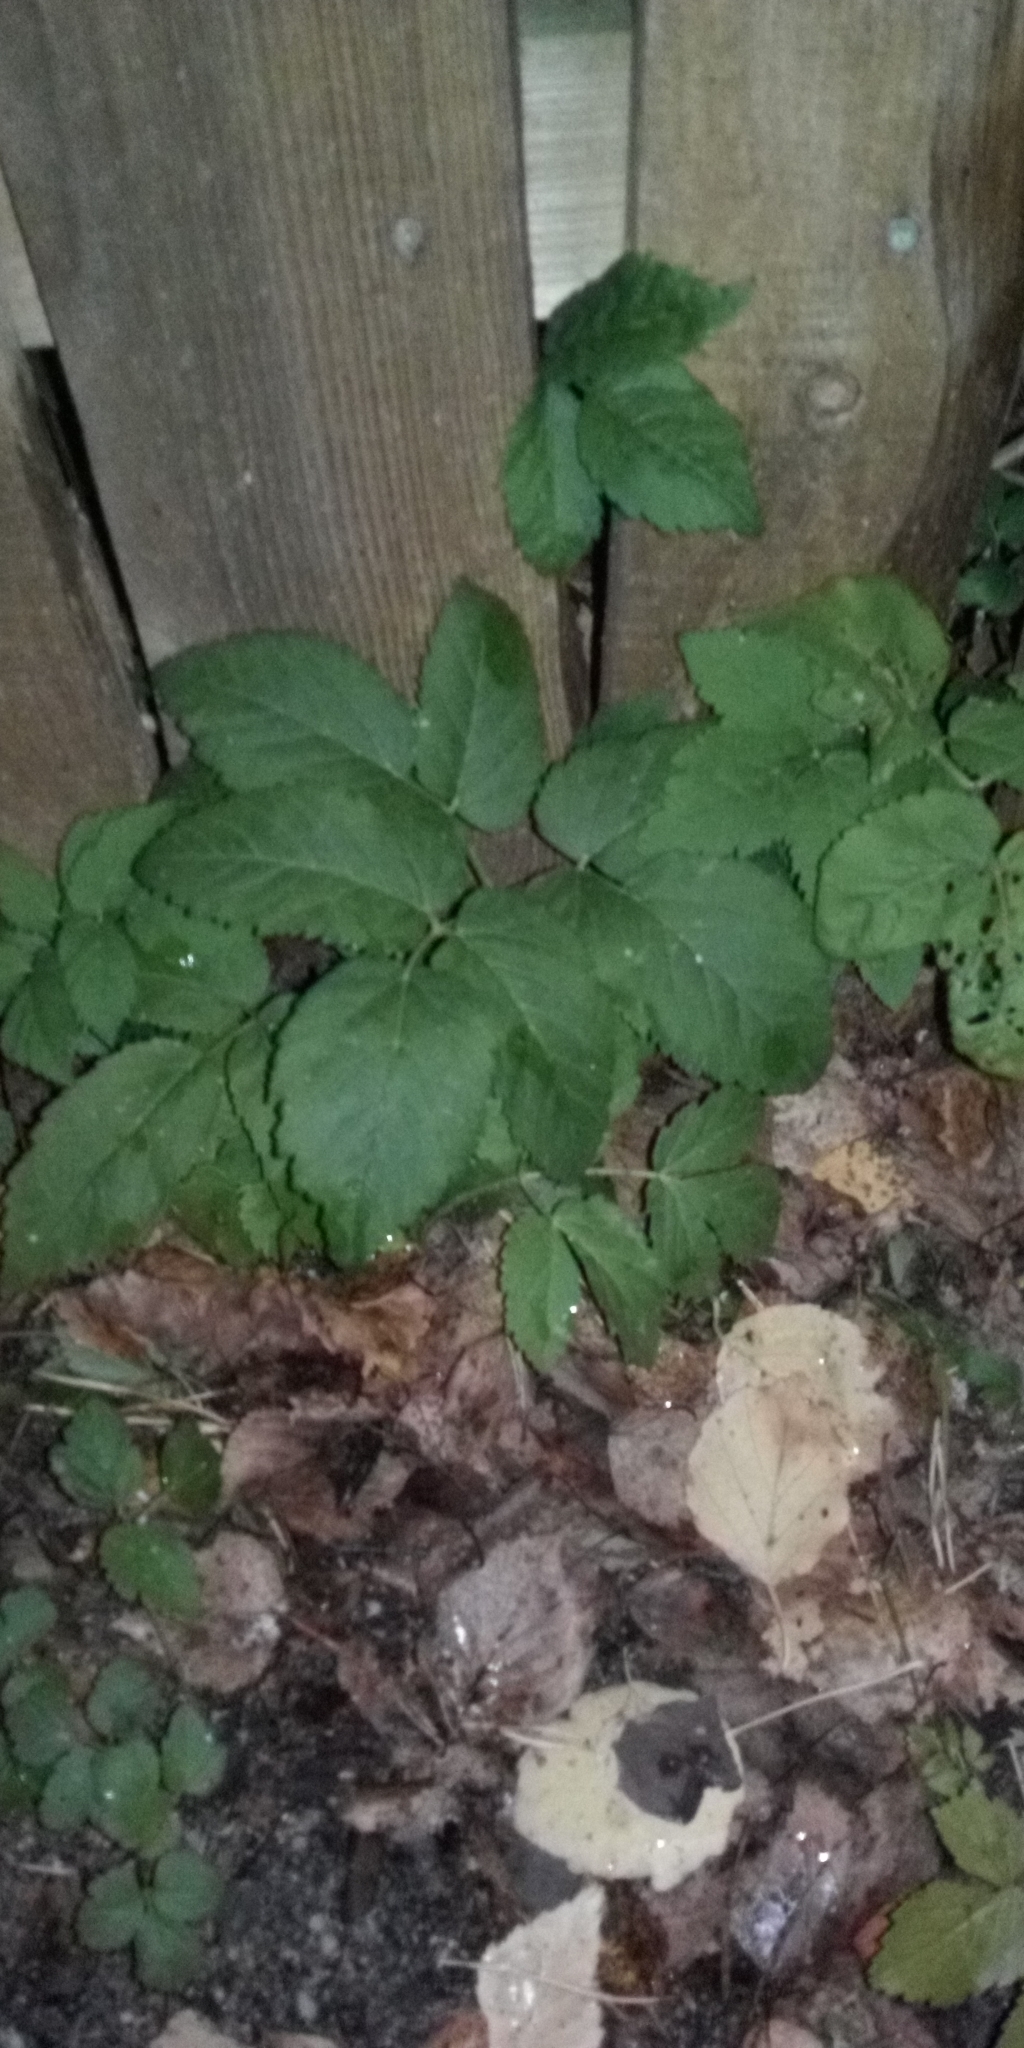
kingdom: Plantae
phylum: Tracheophyta
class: Magnoliopsida
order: Apiales
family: Apiaceae
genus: Aegopodium
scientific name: Aegopodium podagraria
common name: Ground-elder
